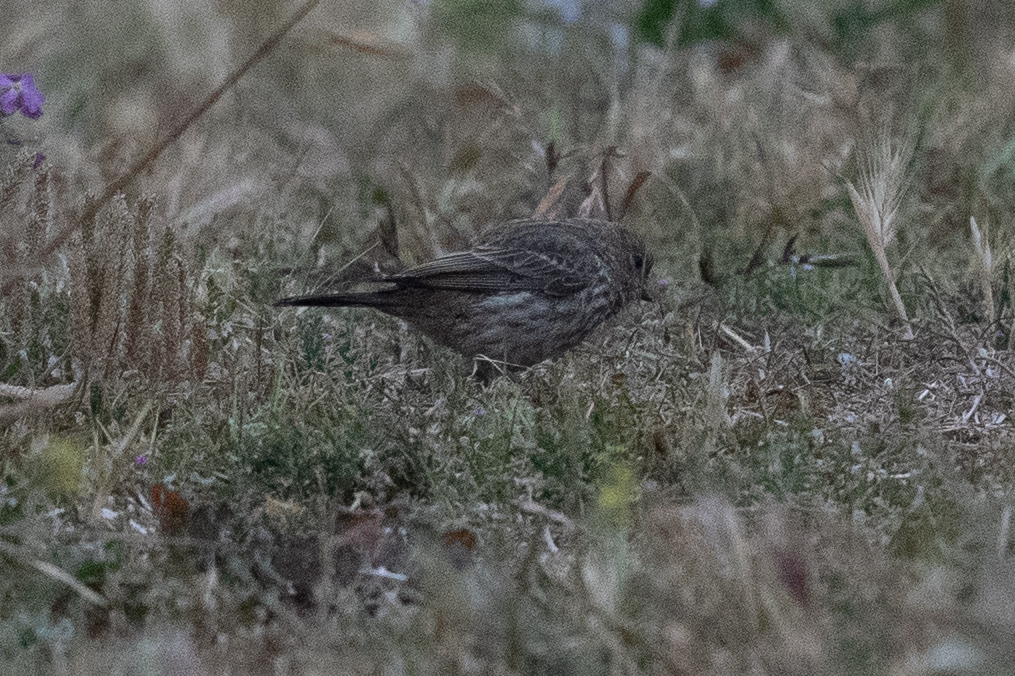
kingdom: Animalia
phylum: Chordata
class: Aves
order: Passeriformes
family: Fringillidae
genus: Haemorhous
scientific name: Haemorhous mexicanus
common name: House finch
